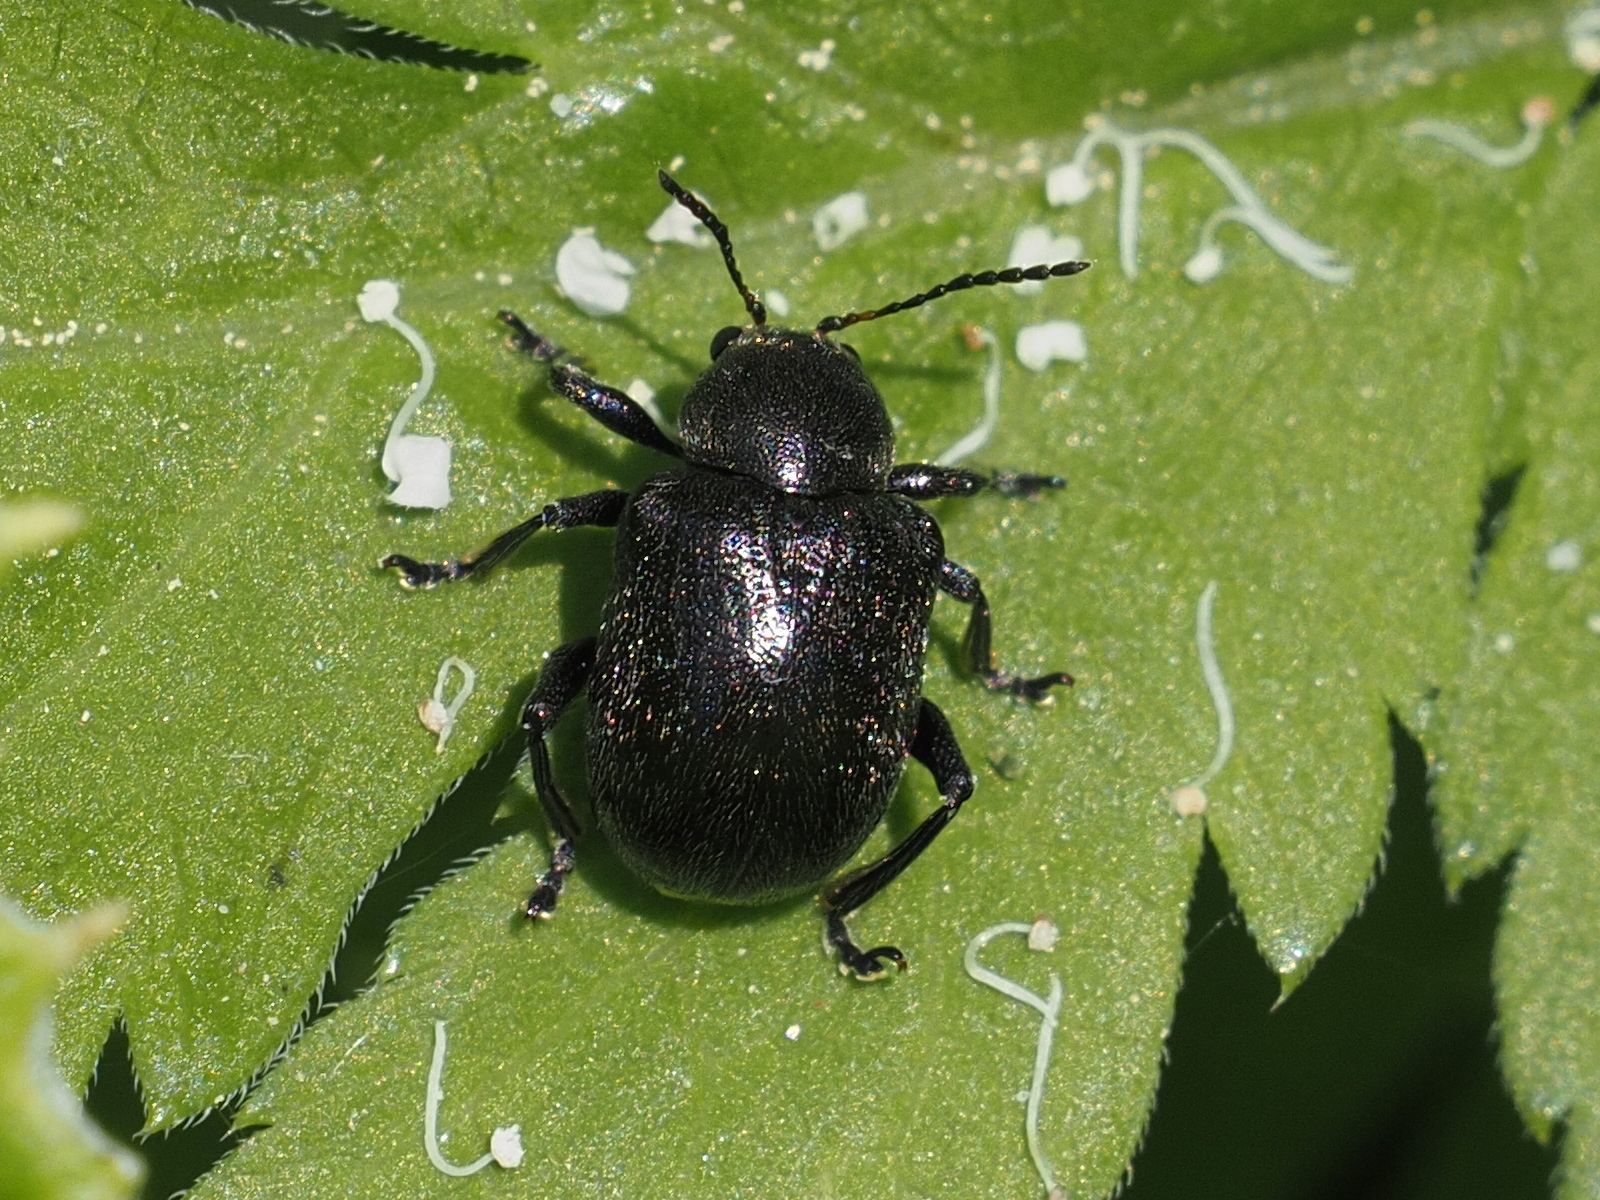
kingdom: Animalia
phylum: Arthropoda
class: Insecta
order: Coleoptera
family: Chrysomelidae
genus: Bromius
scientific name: Bromius obscurus
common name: Western grape rootworm
